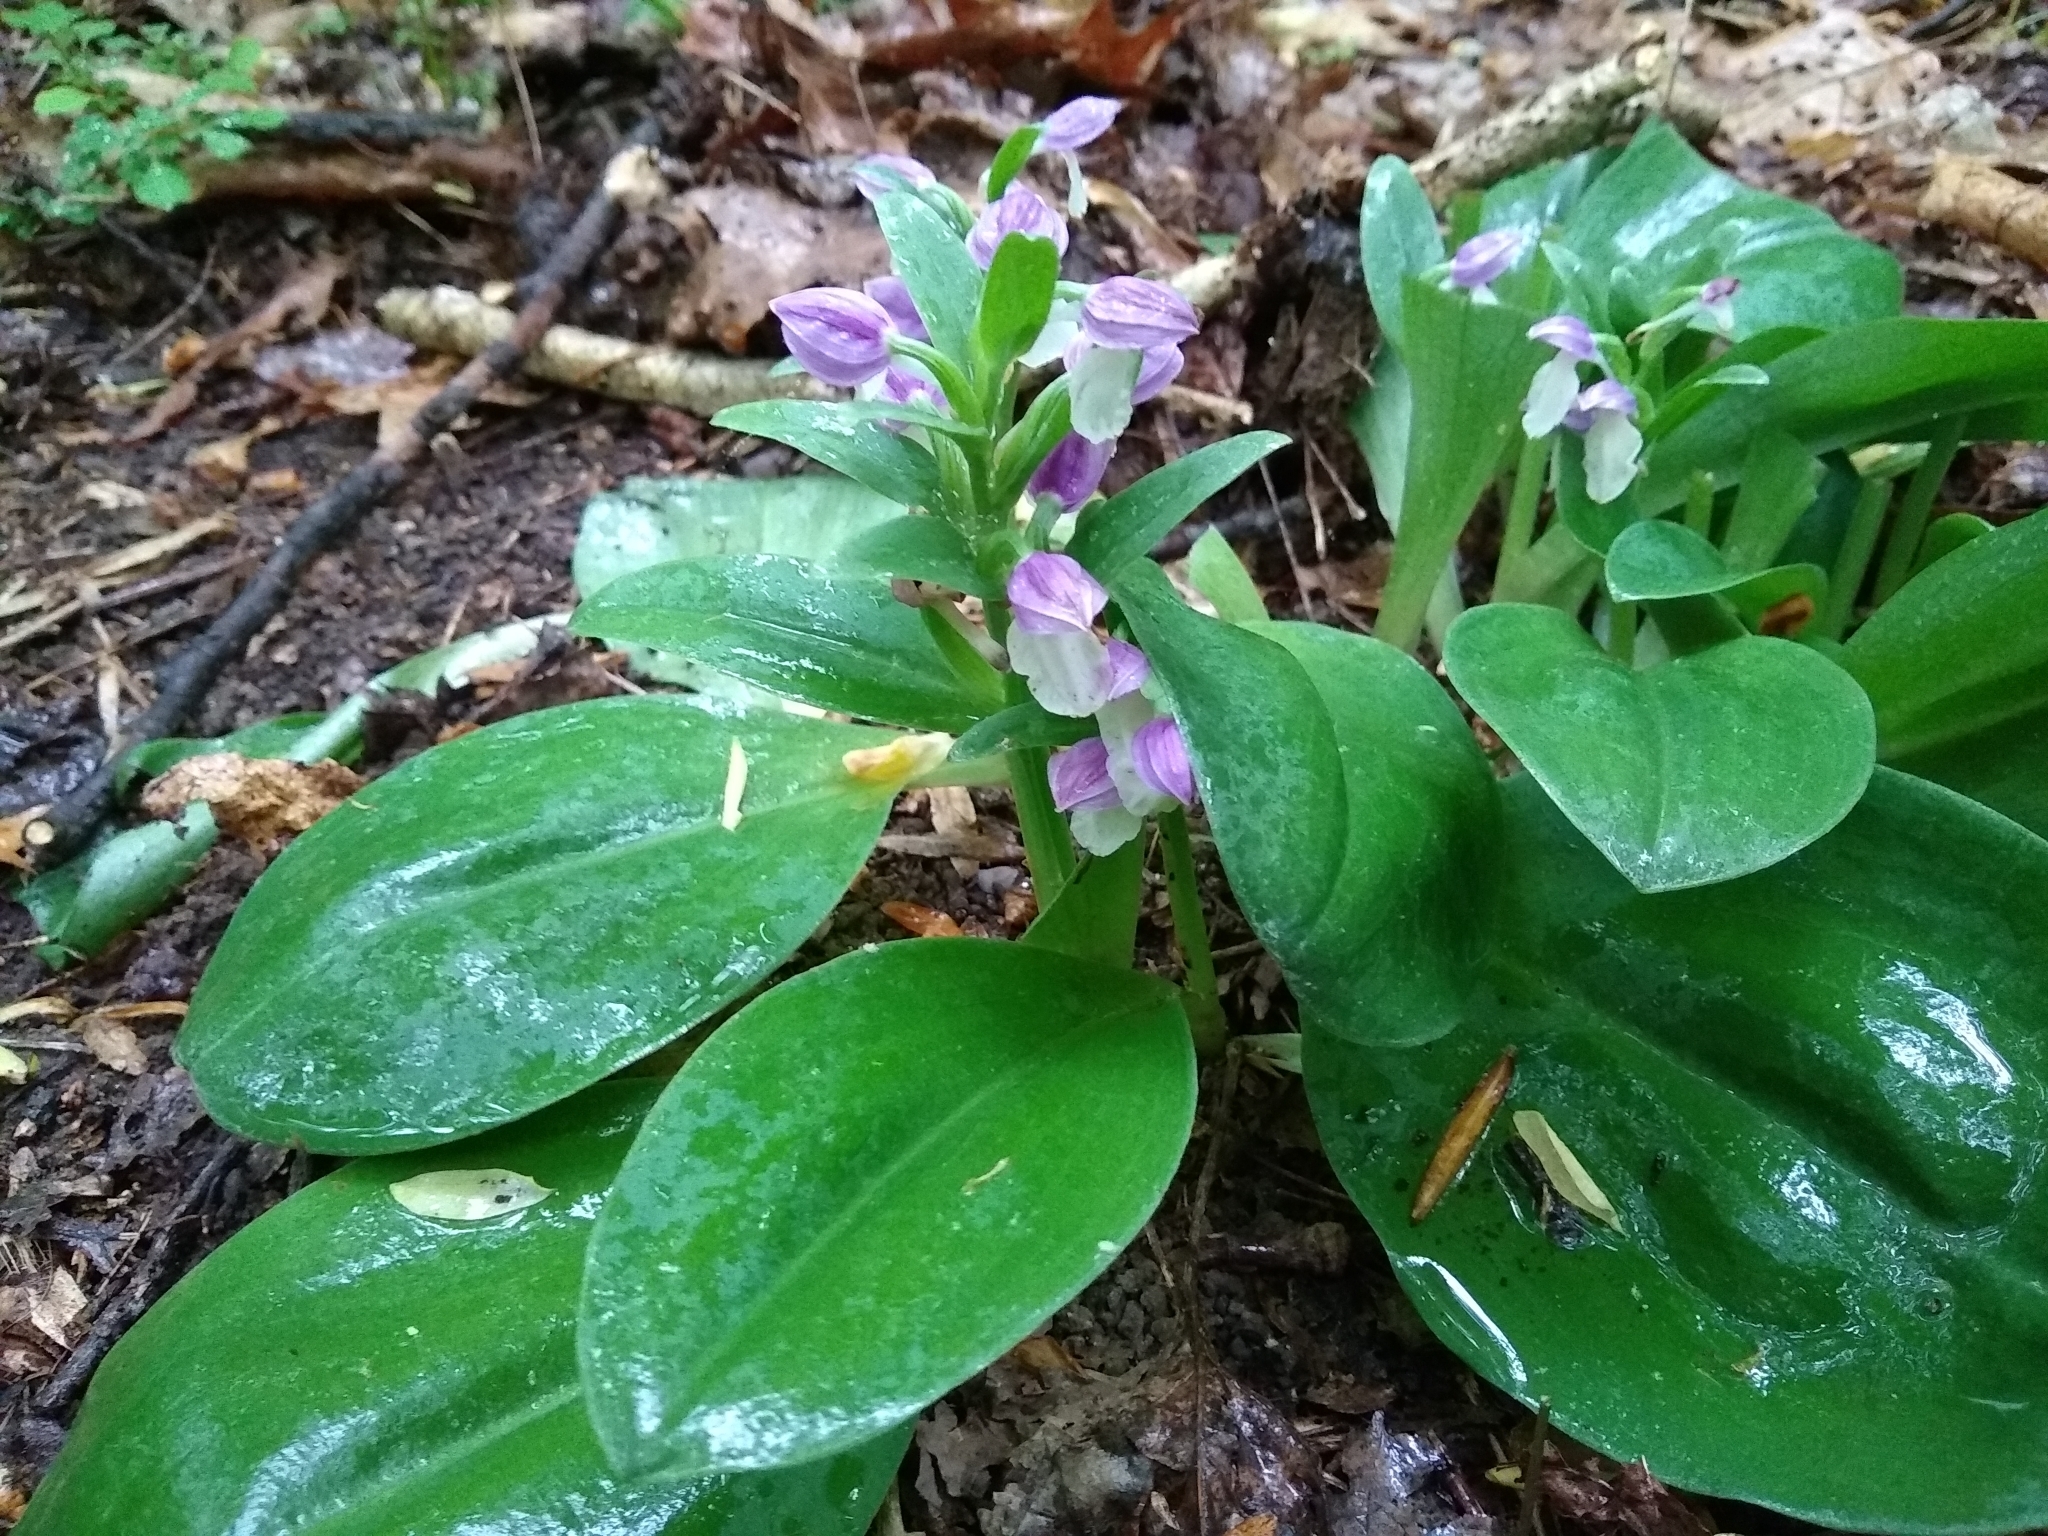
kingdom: Plantae
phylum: Tracheophyta
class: Liliopsida
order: Asparagales
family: Orchidaceae
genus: Galearis
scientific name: Galearis spectabilis
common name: Purple-hooded orchis
